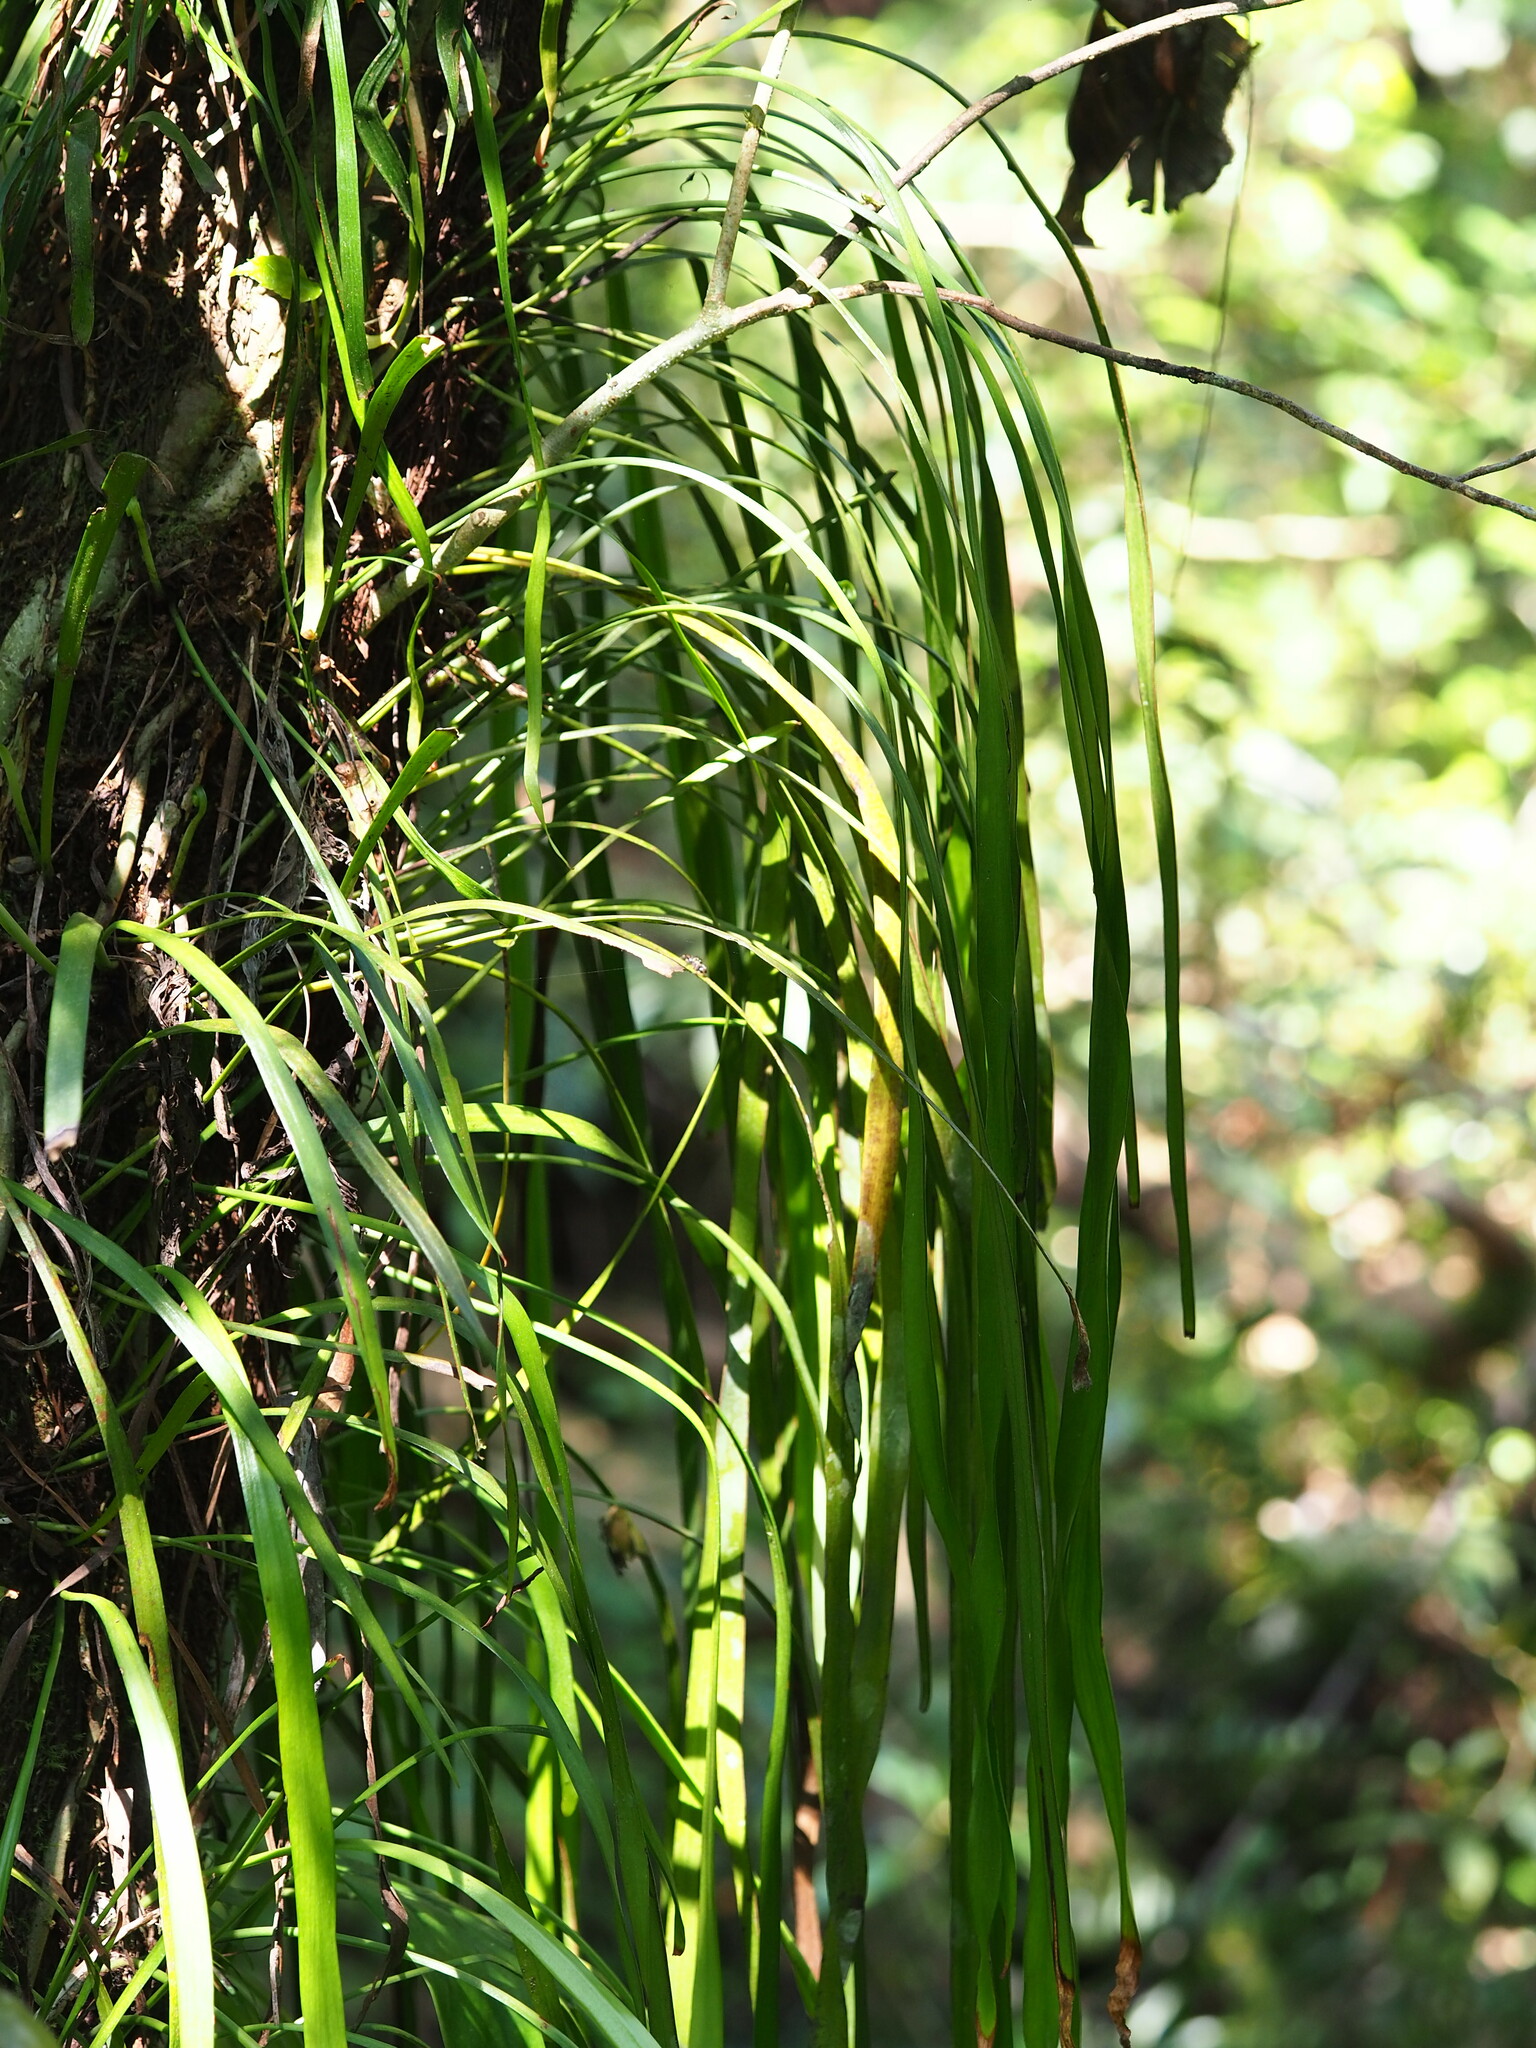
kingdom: Plantae
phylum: Tracheophyta
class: Polypodiopsida
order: Polypodiales
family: Pteridaceae
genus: Haplopteris
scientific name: Haplopteris elongata
